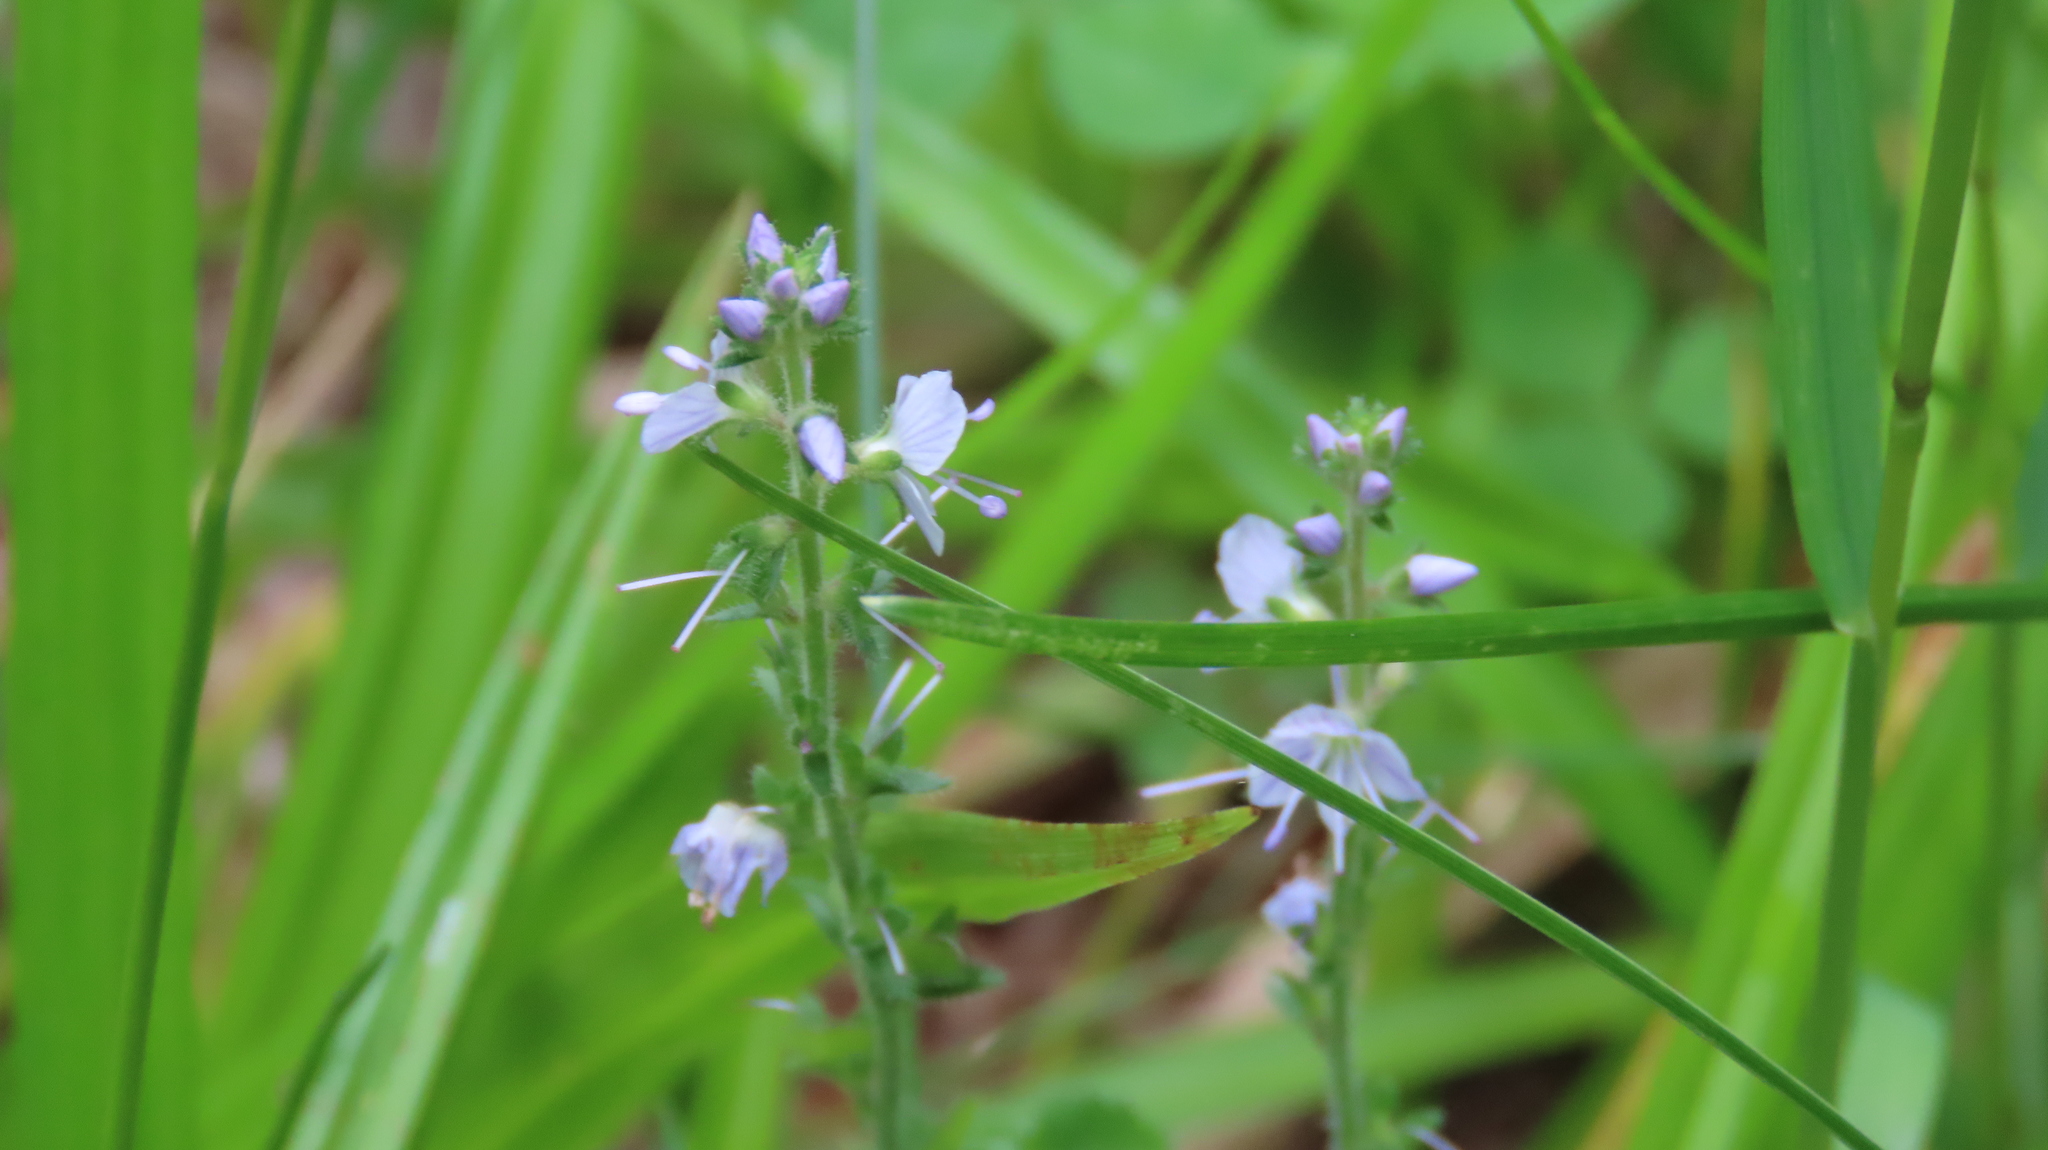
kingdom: Plantae
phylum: Tracheophyta
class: Magnoliopsida
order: Lamiales
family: Plantaginaceae
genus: Veronica
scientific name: Veronica officinalis
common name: Common speedwell
